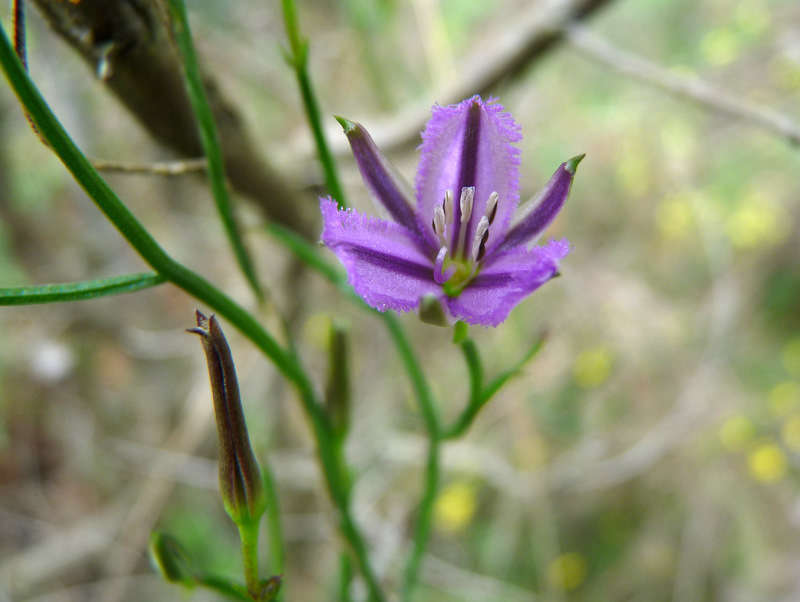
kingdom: Plantae
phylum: Tracheophyta
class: Liliopsida
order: Asparagales
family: Asparagaceae
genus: Thysanotus
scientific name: Thysanotus patersonii
